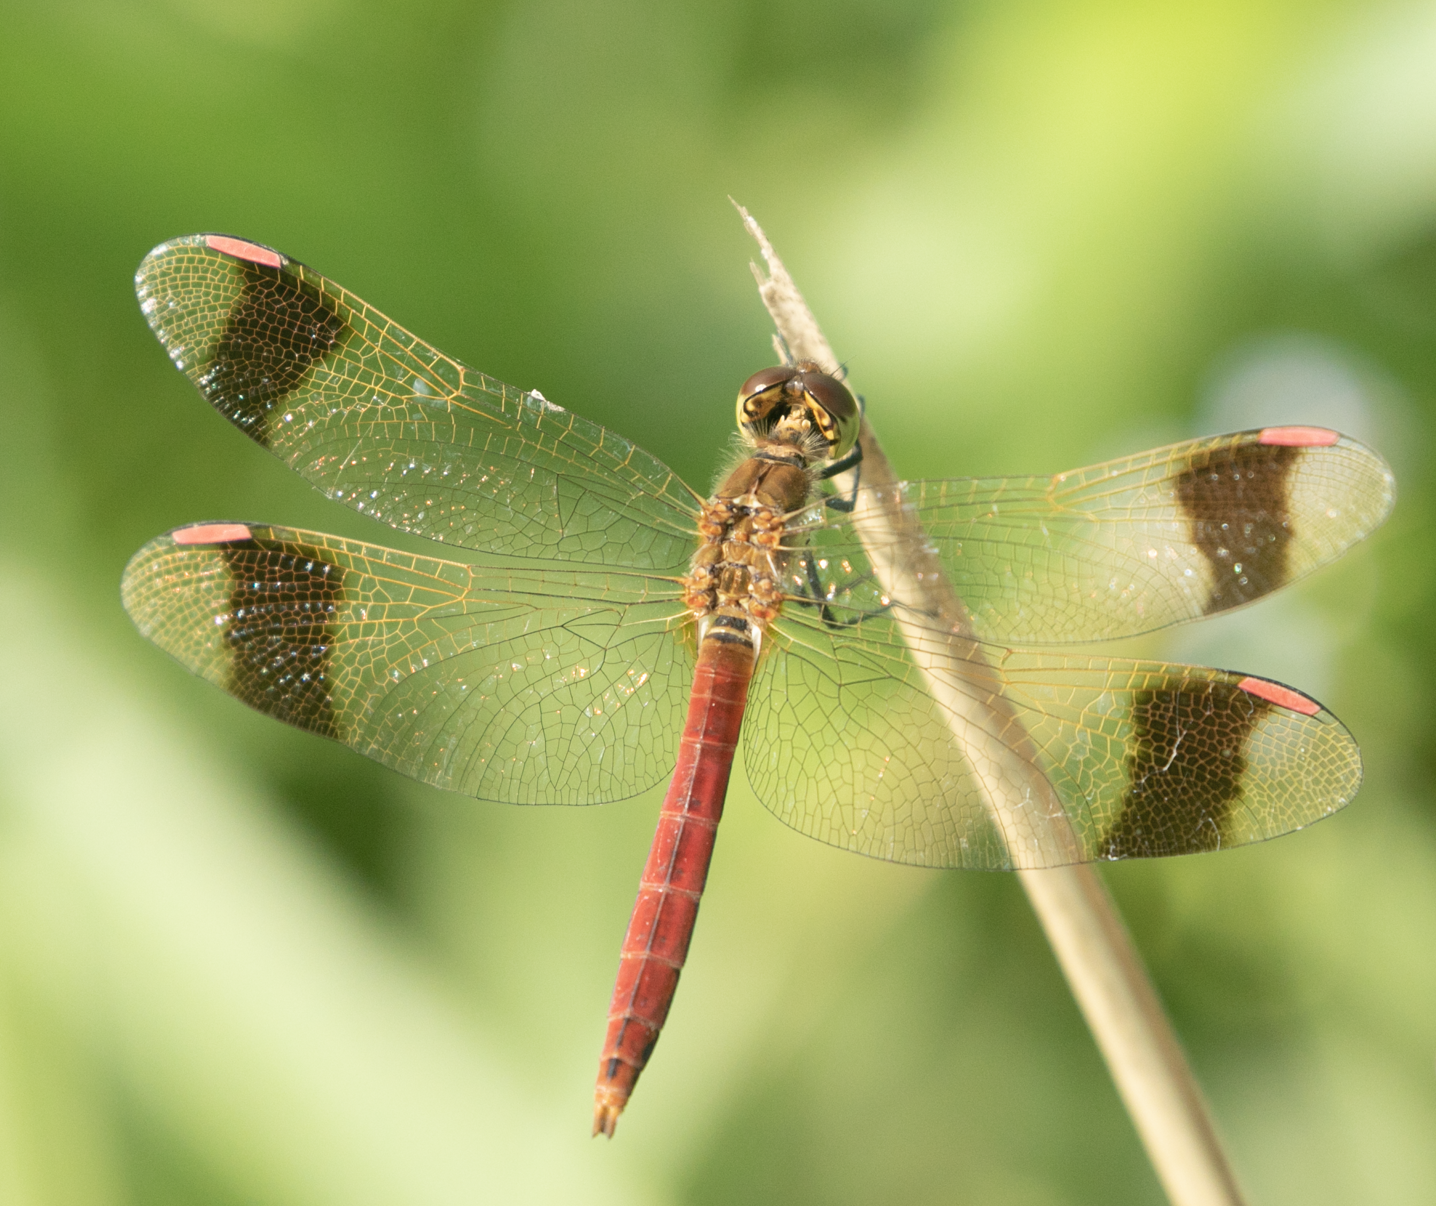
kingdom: Animalia
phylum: Arthropoda
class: Insecta
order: Odonata
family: Libellulidae
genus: Sympetrum
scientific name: Sympetrum pedemontanum
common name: Banded darter
